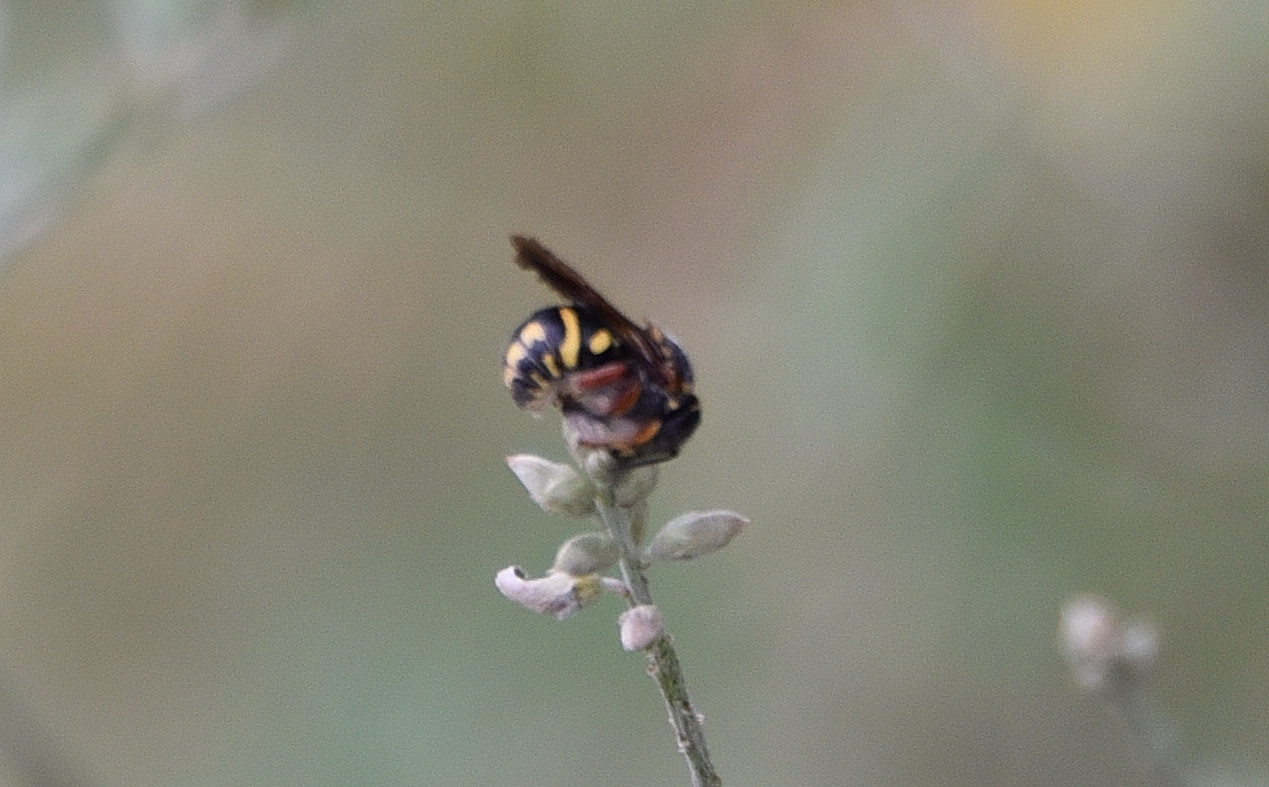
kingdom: Animalia
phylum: Arthropoda
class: Insecta
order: Hymenoptera
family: Megachilidae
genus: Anthidiellum
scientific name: Anthidiellum notatum
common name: Northern rotund-resin bee
